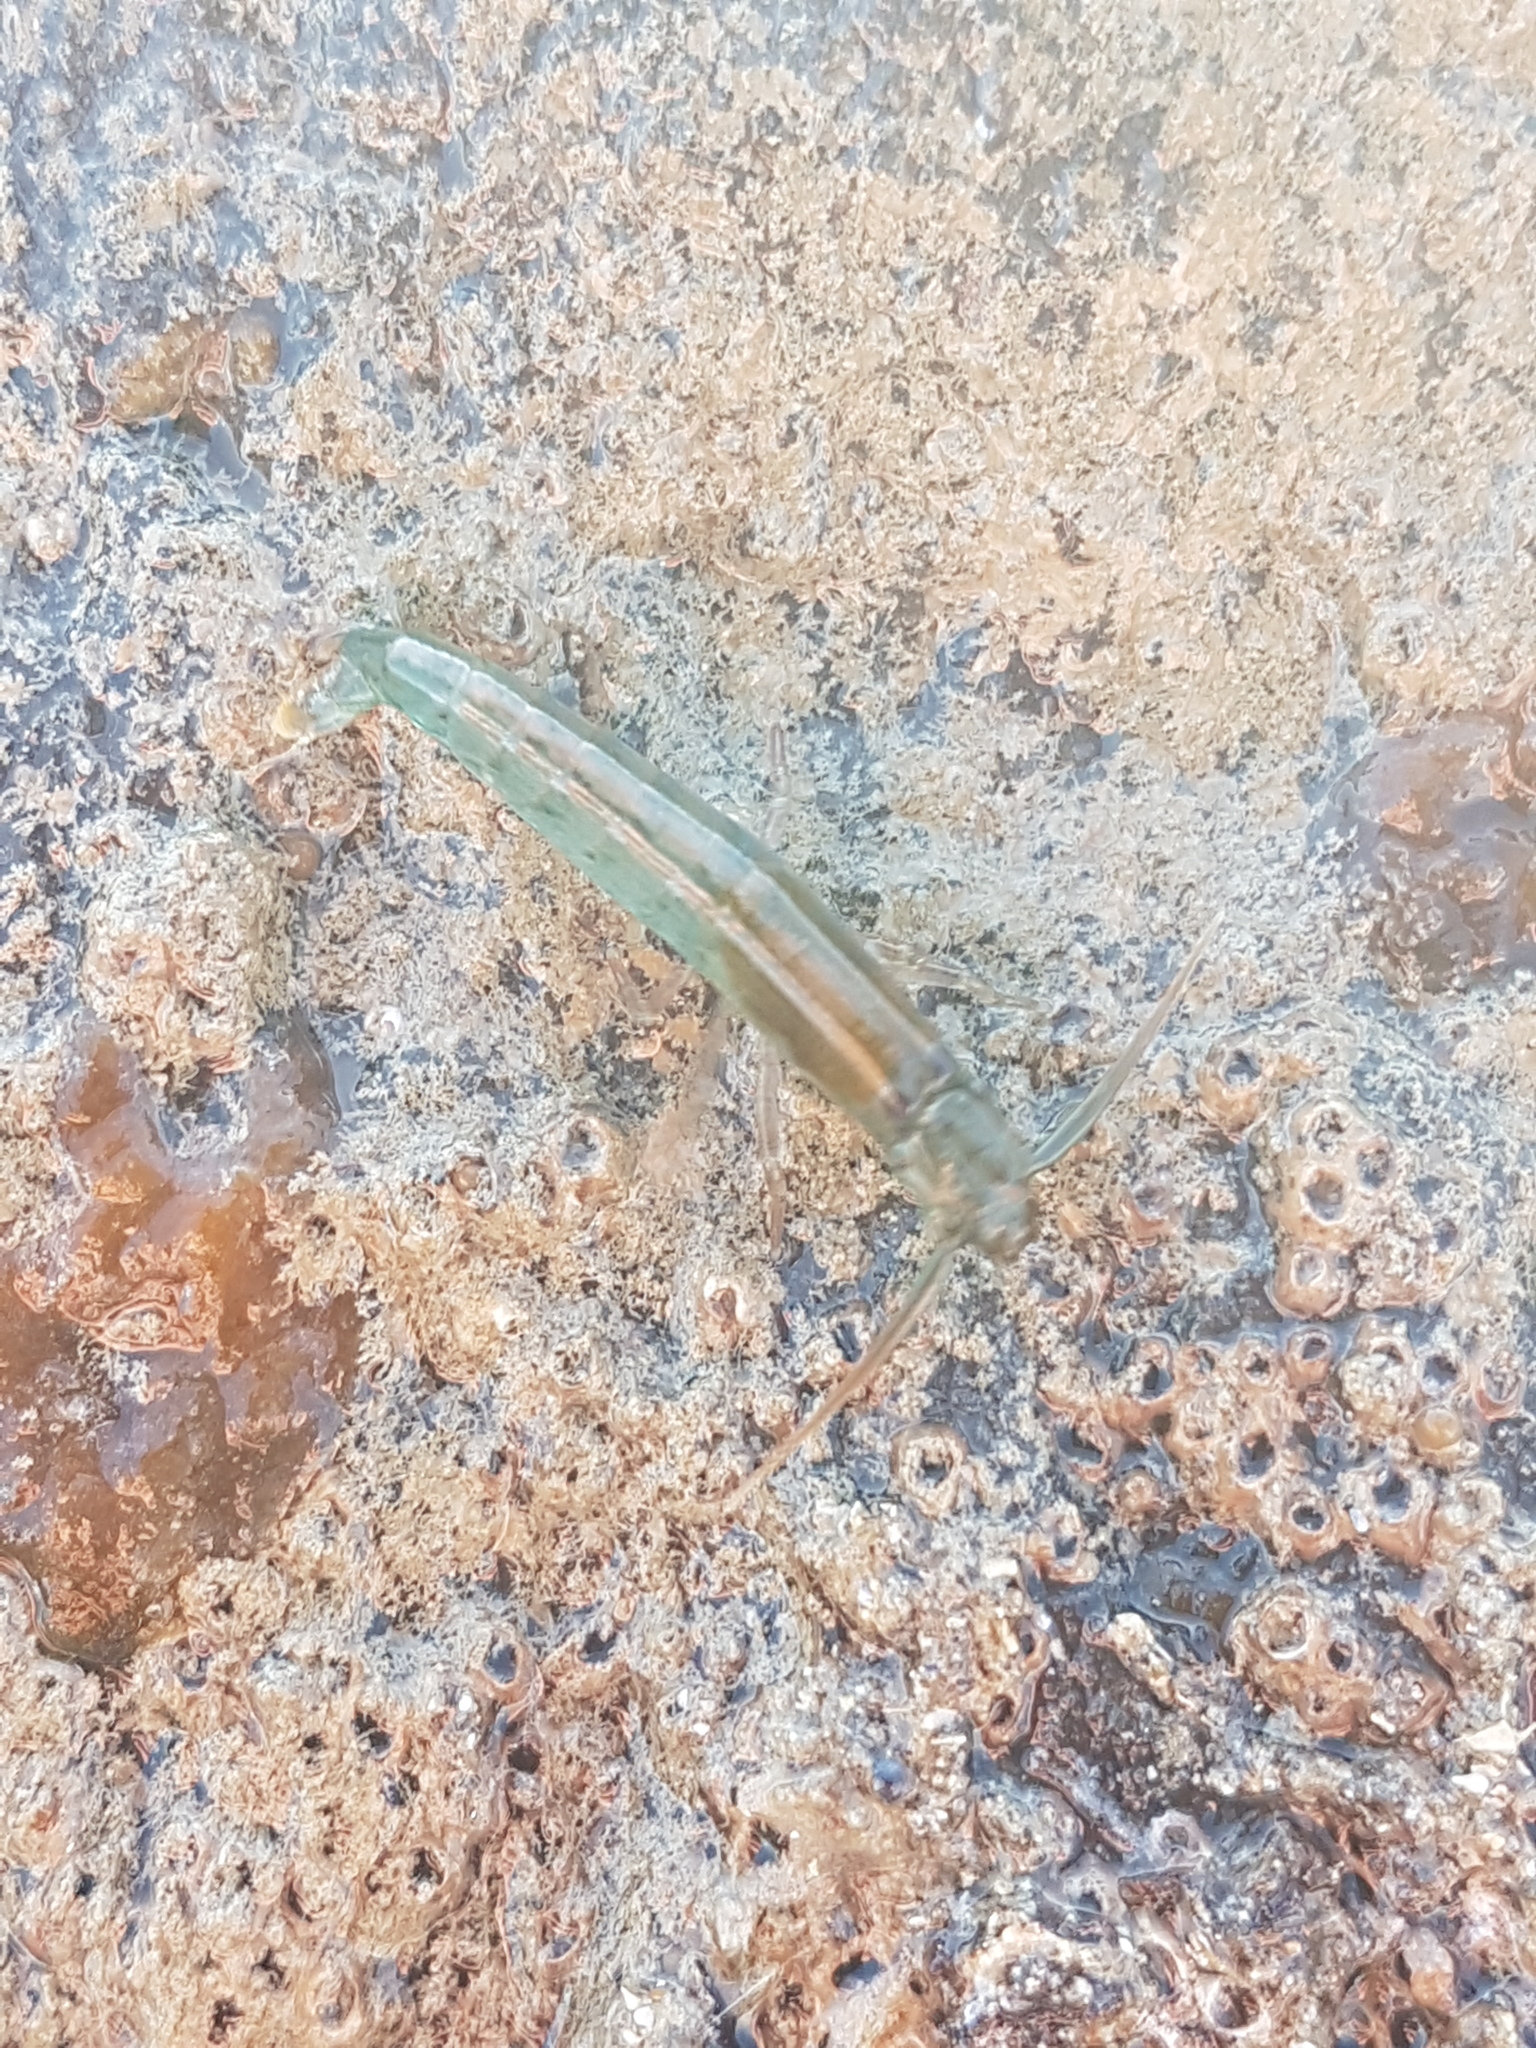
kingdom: Animalia
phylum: Arthropoda
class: Malacostraca
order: Decapoda
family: Alpheidae
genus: Betaeopsis
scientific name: Betaeopsis aequimanus
